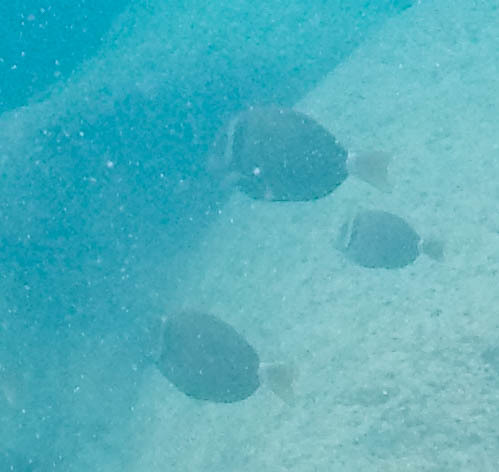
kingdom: Animalia
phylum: Chordata
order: Perciformes
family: Acanthuridae
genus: Acanthurus
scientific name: Acanthurus leucopareius
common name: Head-band surgeonfish
